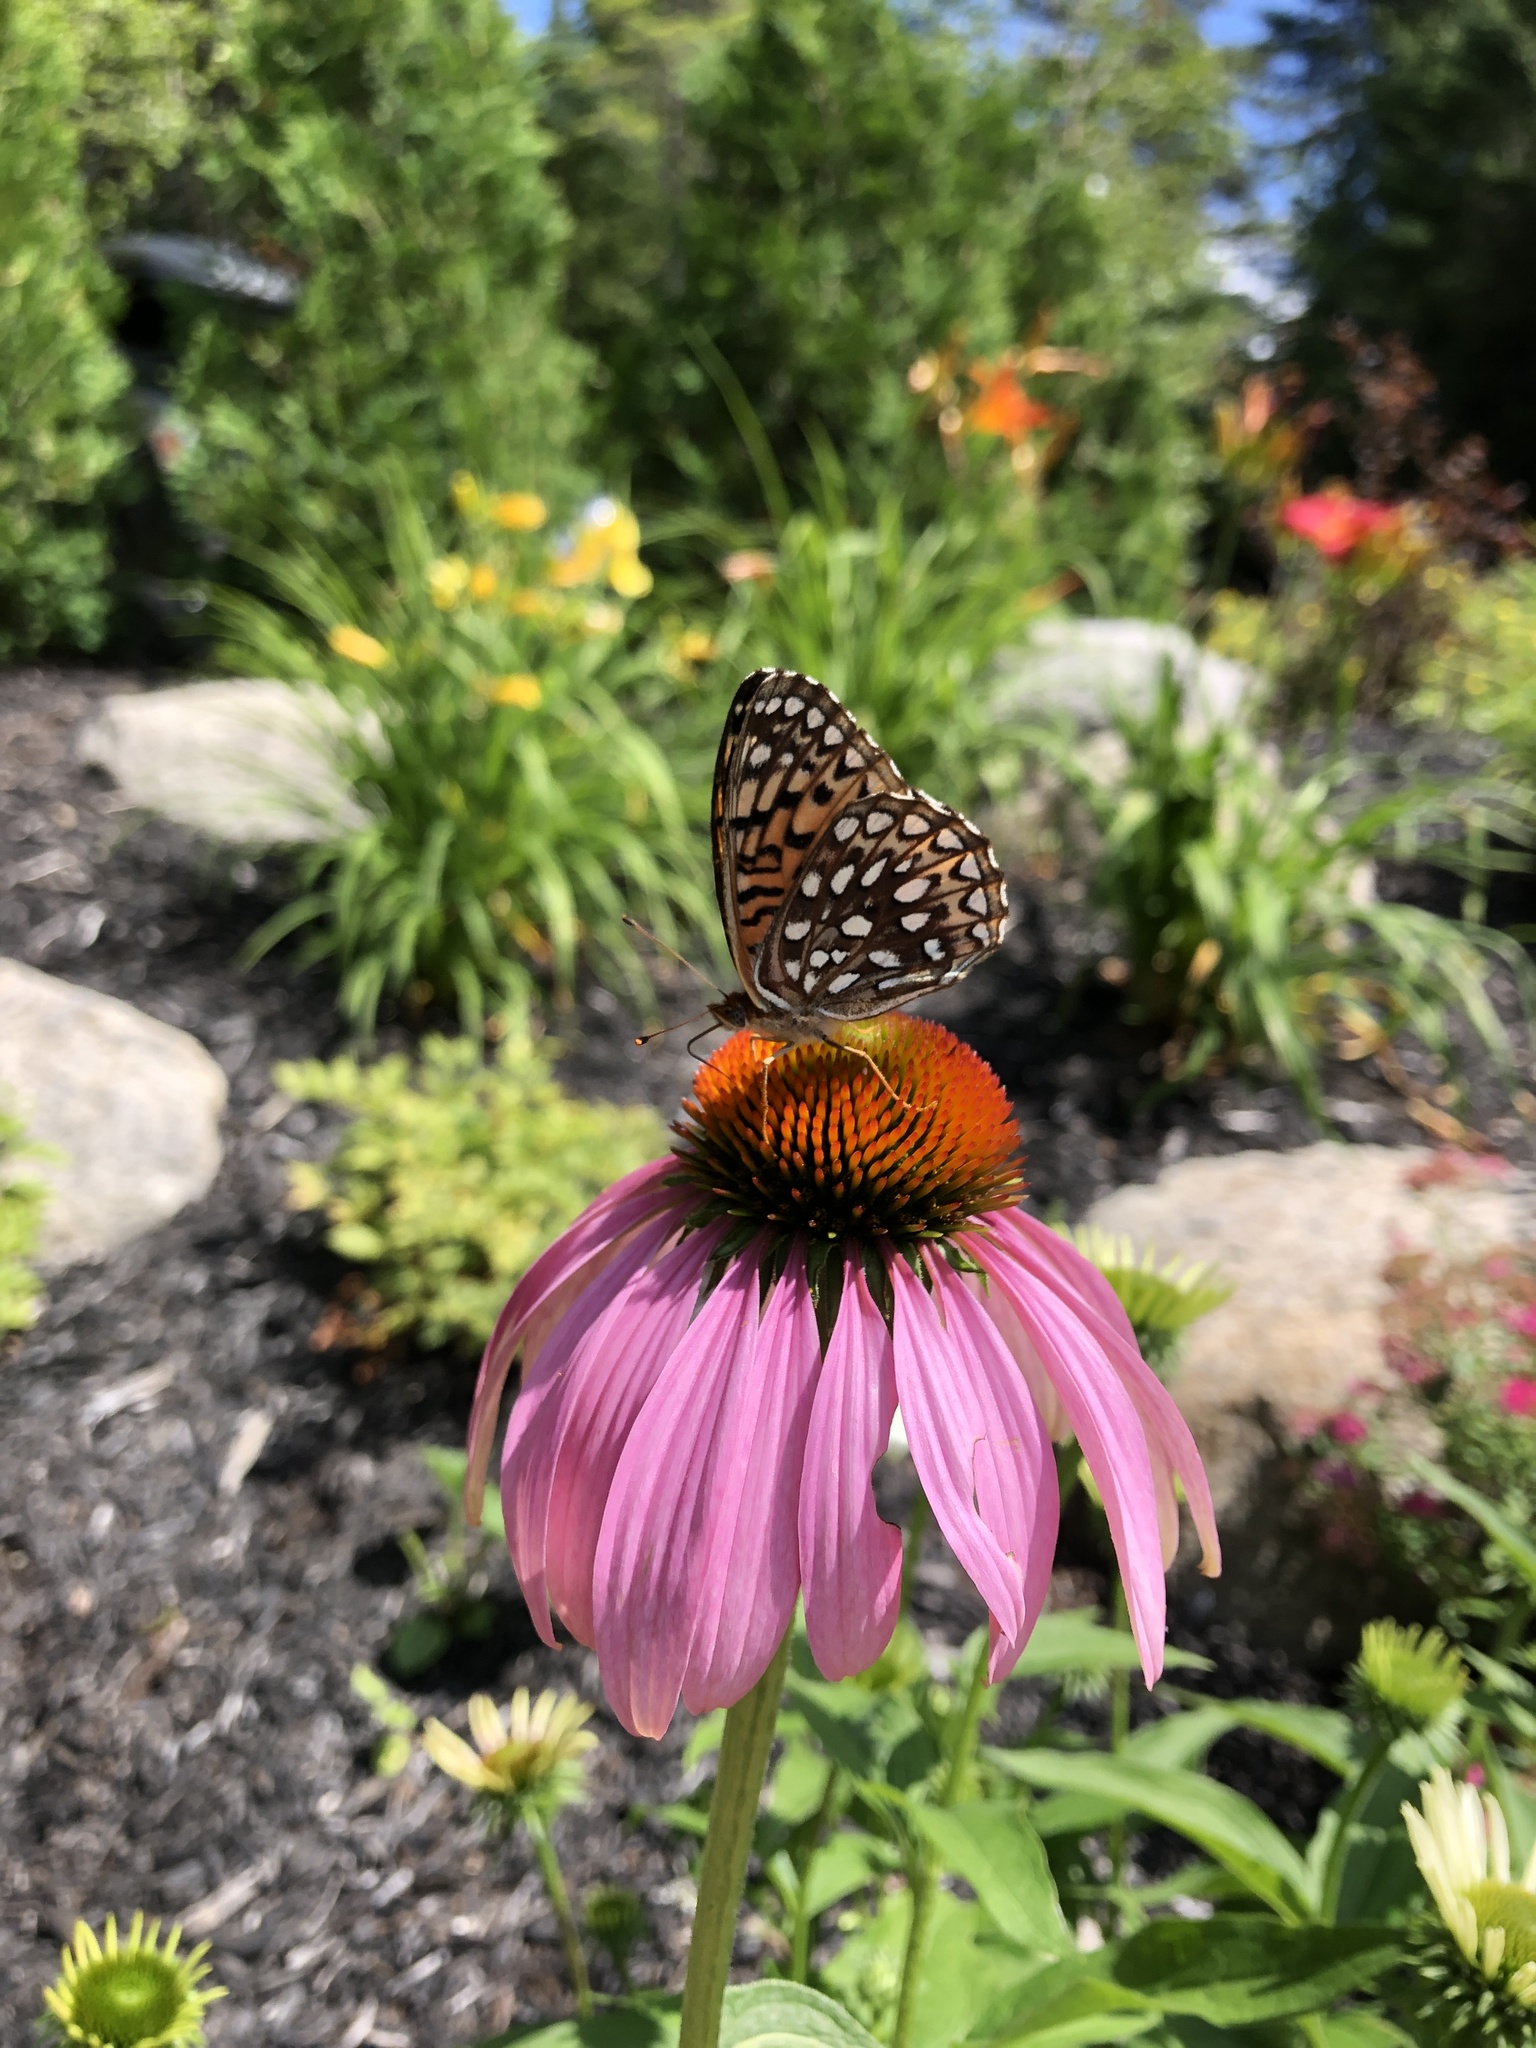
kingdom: Animalia
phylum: Arthropoda
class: Insecta
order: Lepidoptera
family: Nymphalidae
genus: Speyeria
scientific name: Speyeria atlantis
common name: Atlantis fritillary
